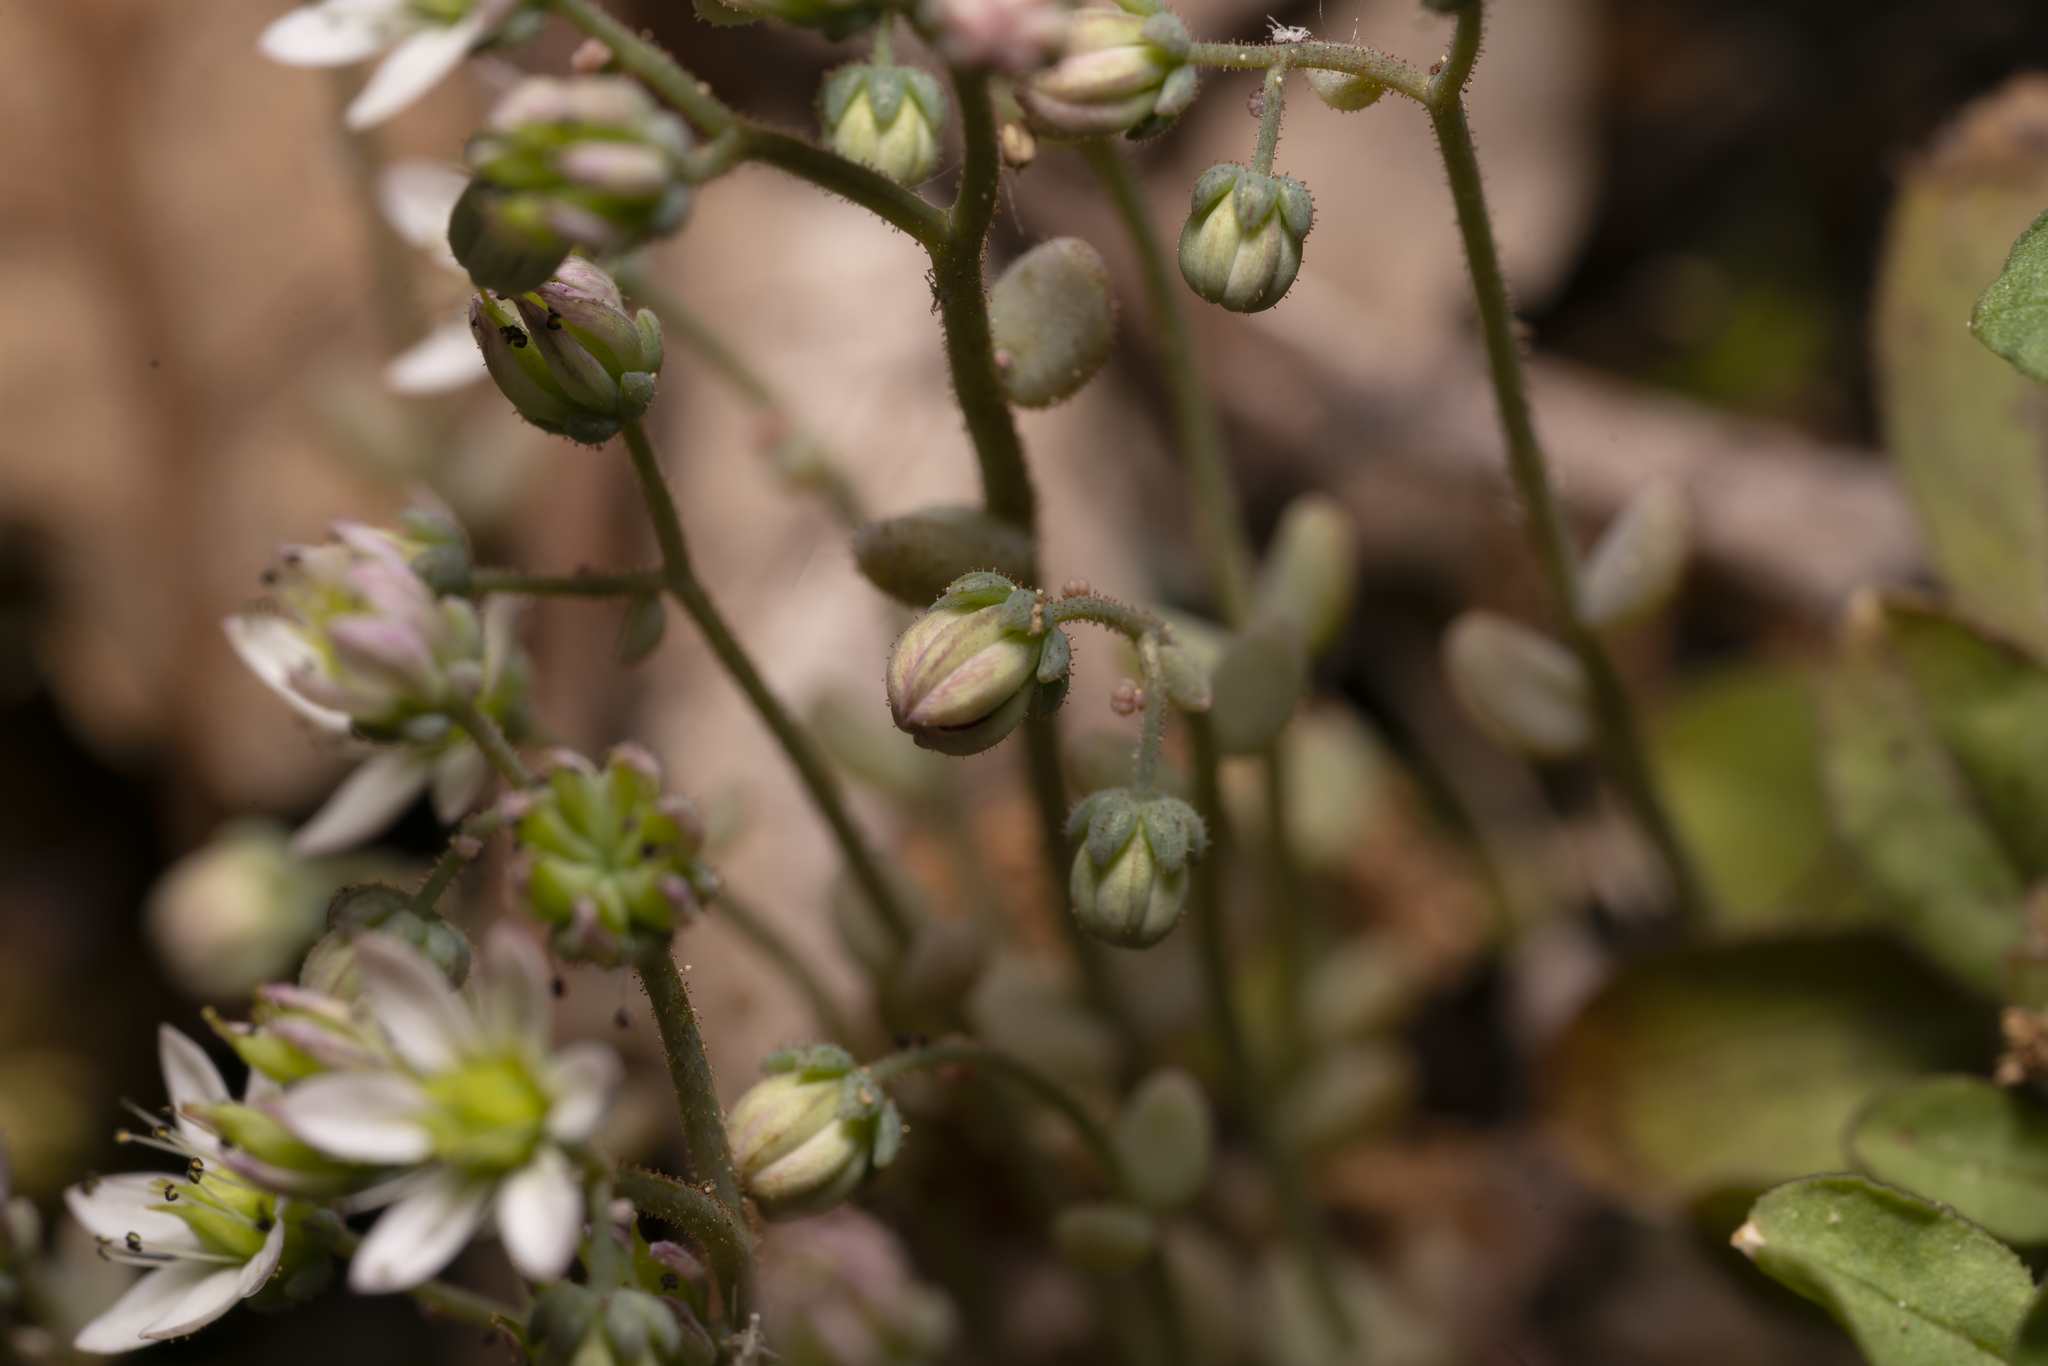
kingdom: Plantae
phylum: Tracheophyta
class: Magnoliopsida
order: Saxifragales
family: Crassulaceae
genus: Sedum
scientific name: Sedum dasyphyllum
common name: Thick-leaf stonecrop
